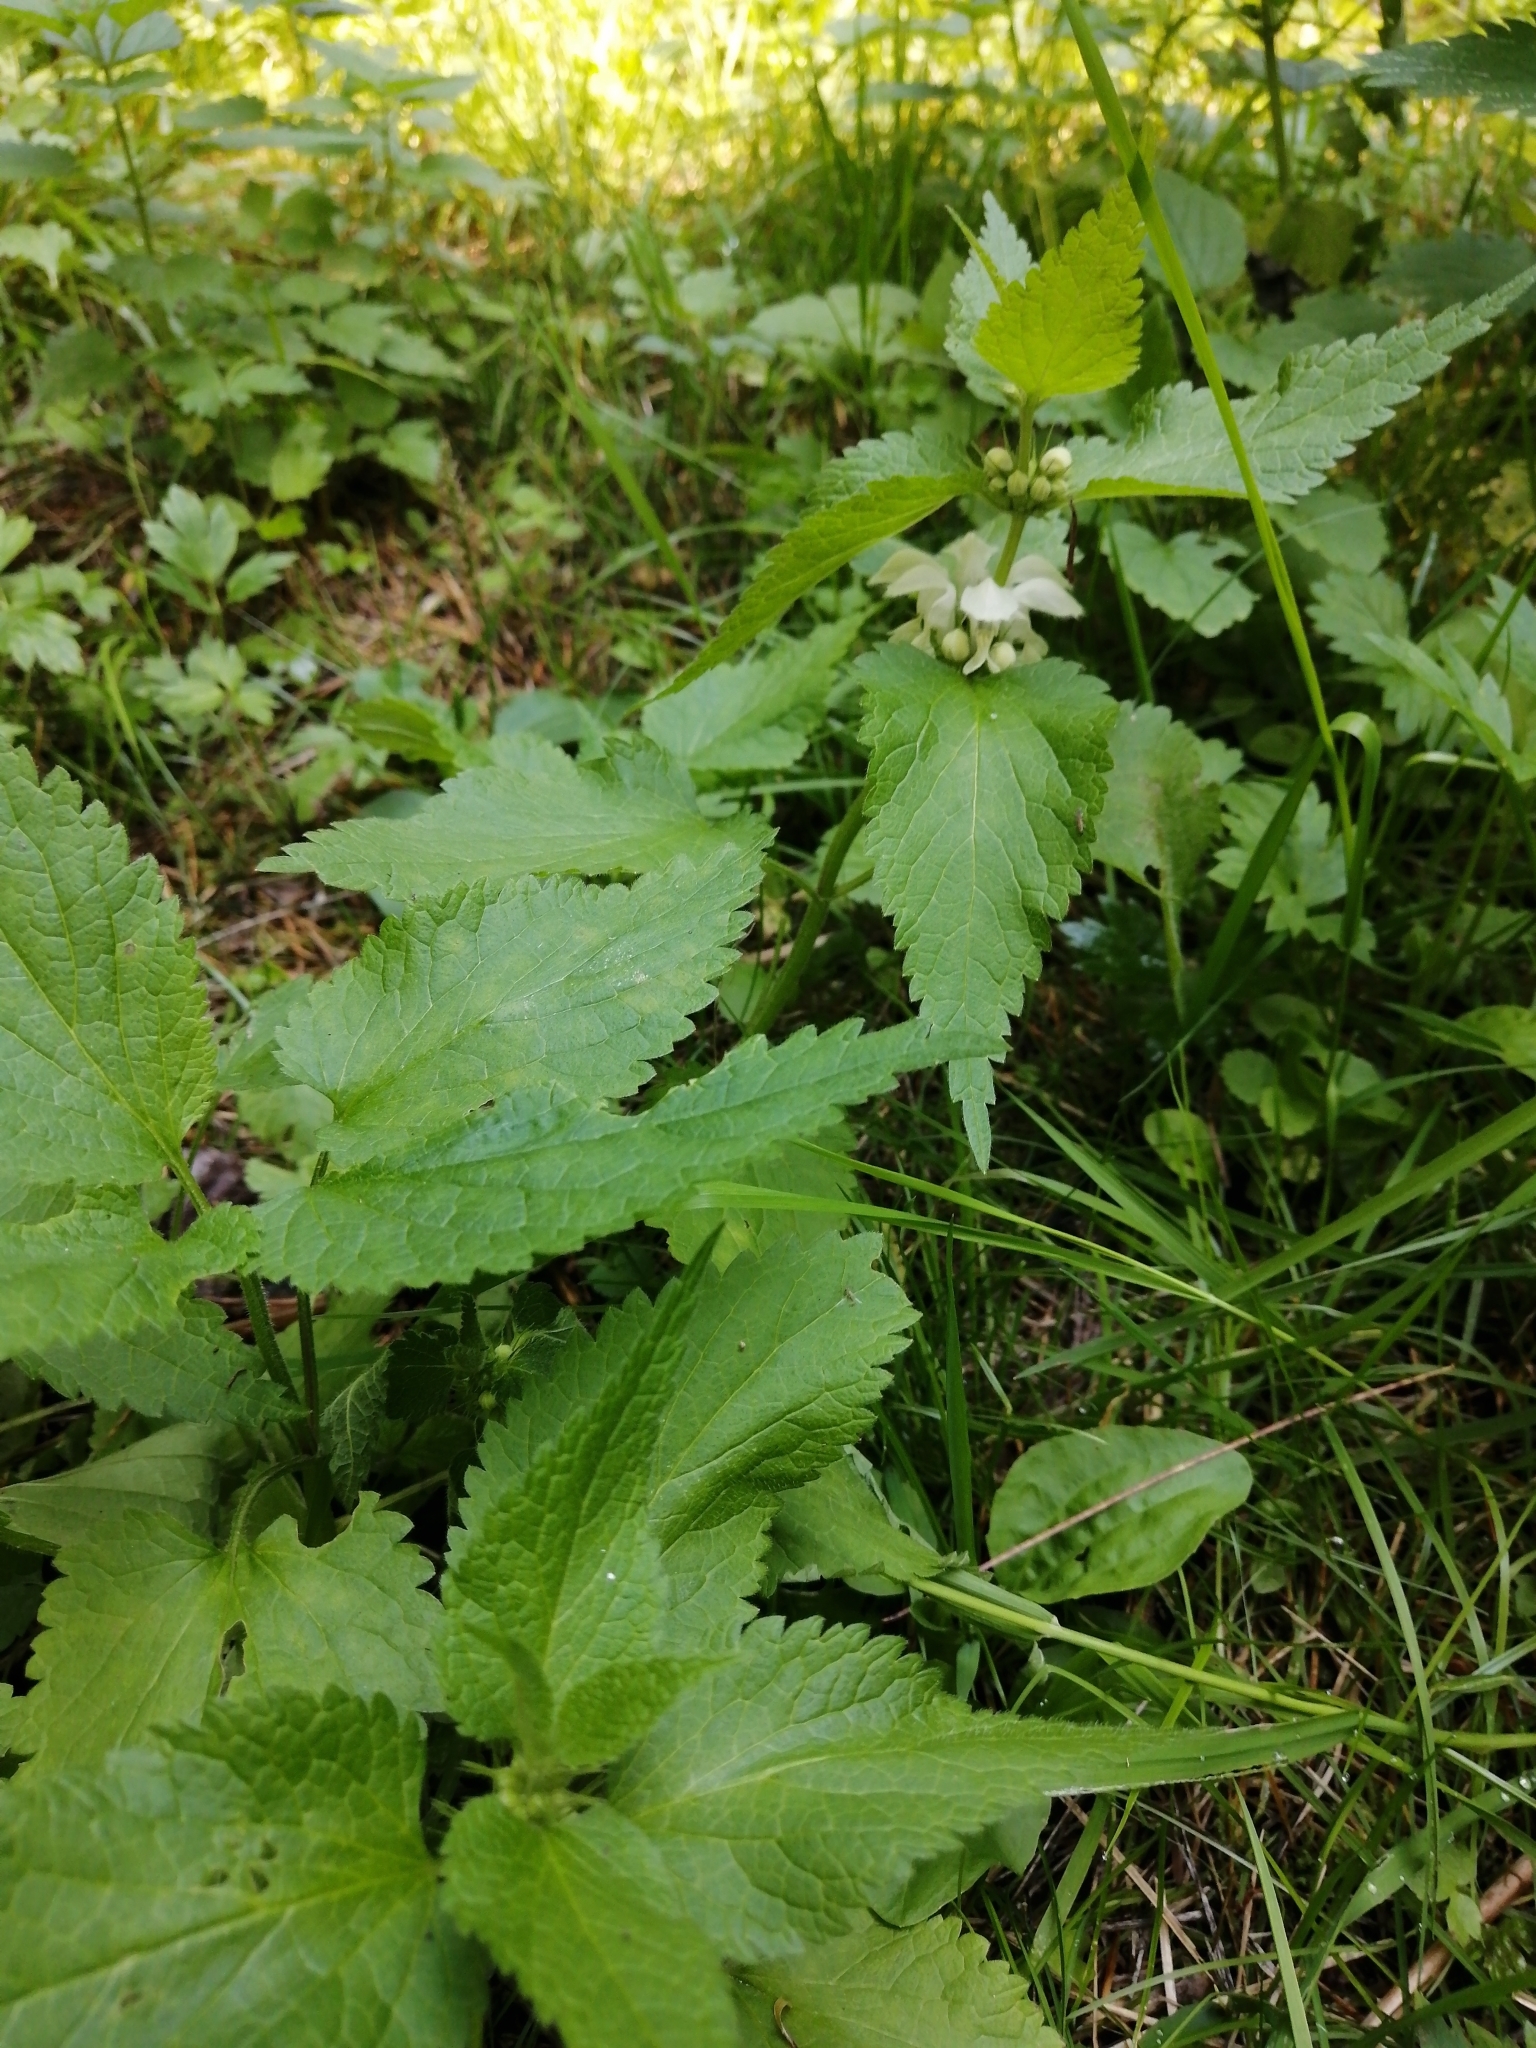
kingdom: Plantae
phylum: Tracheophyta
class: Magnoliopsida
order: Lamiales
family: Lamiaceae
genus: Lamium
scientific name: Lamium album
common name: White dead-nettle
